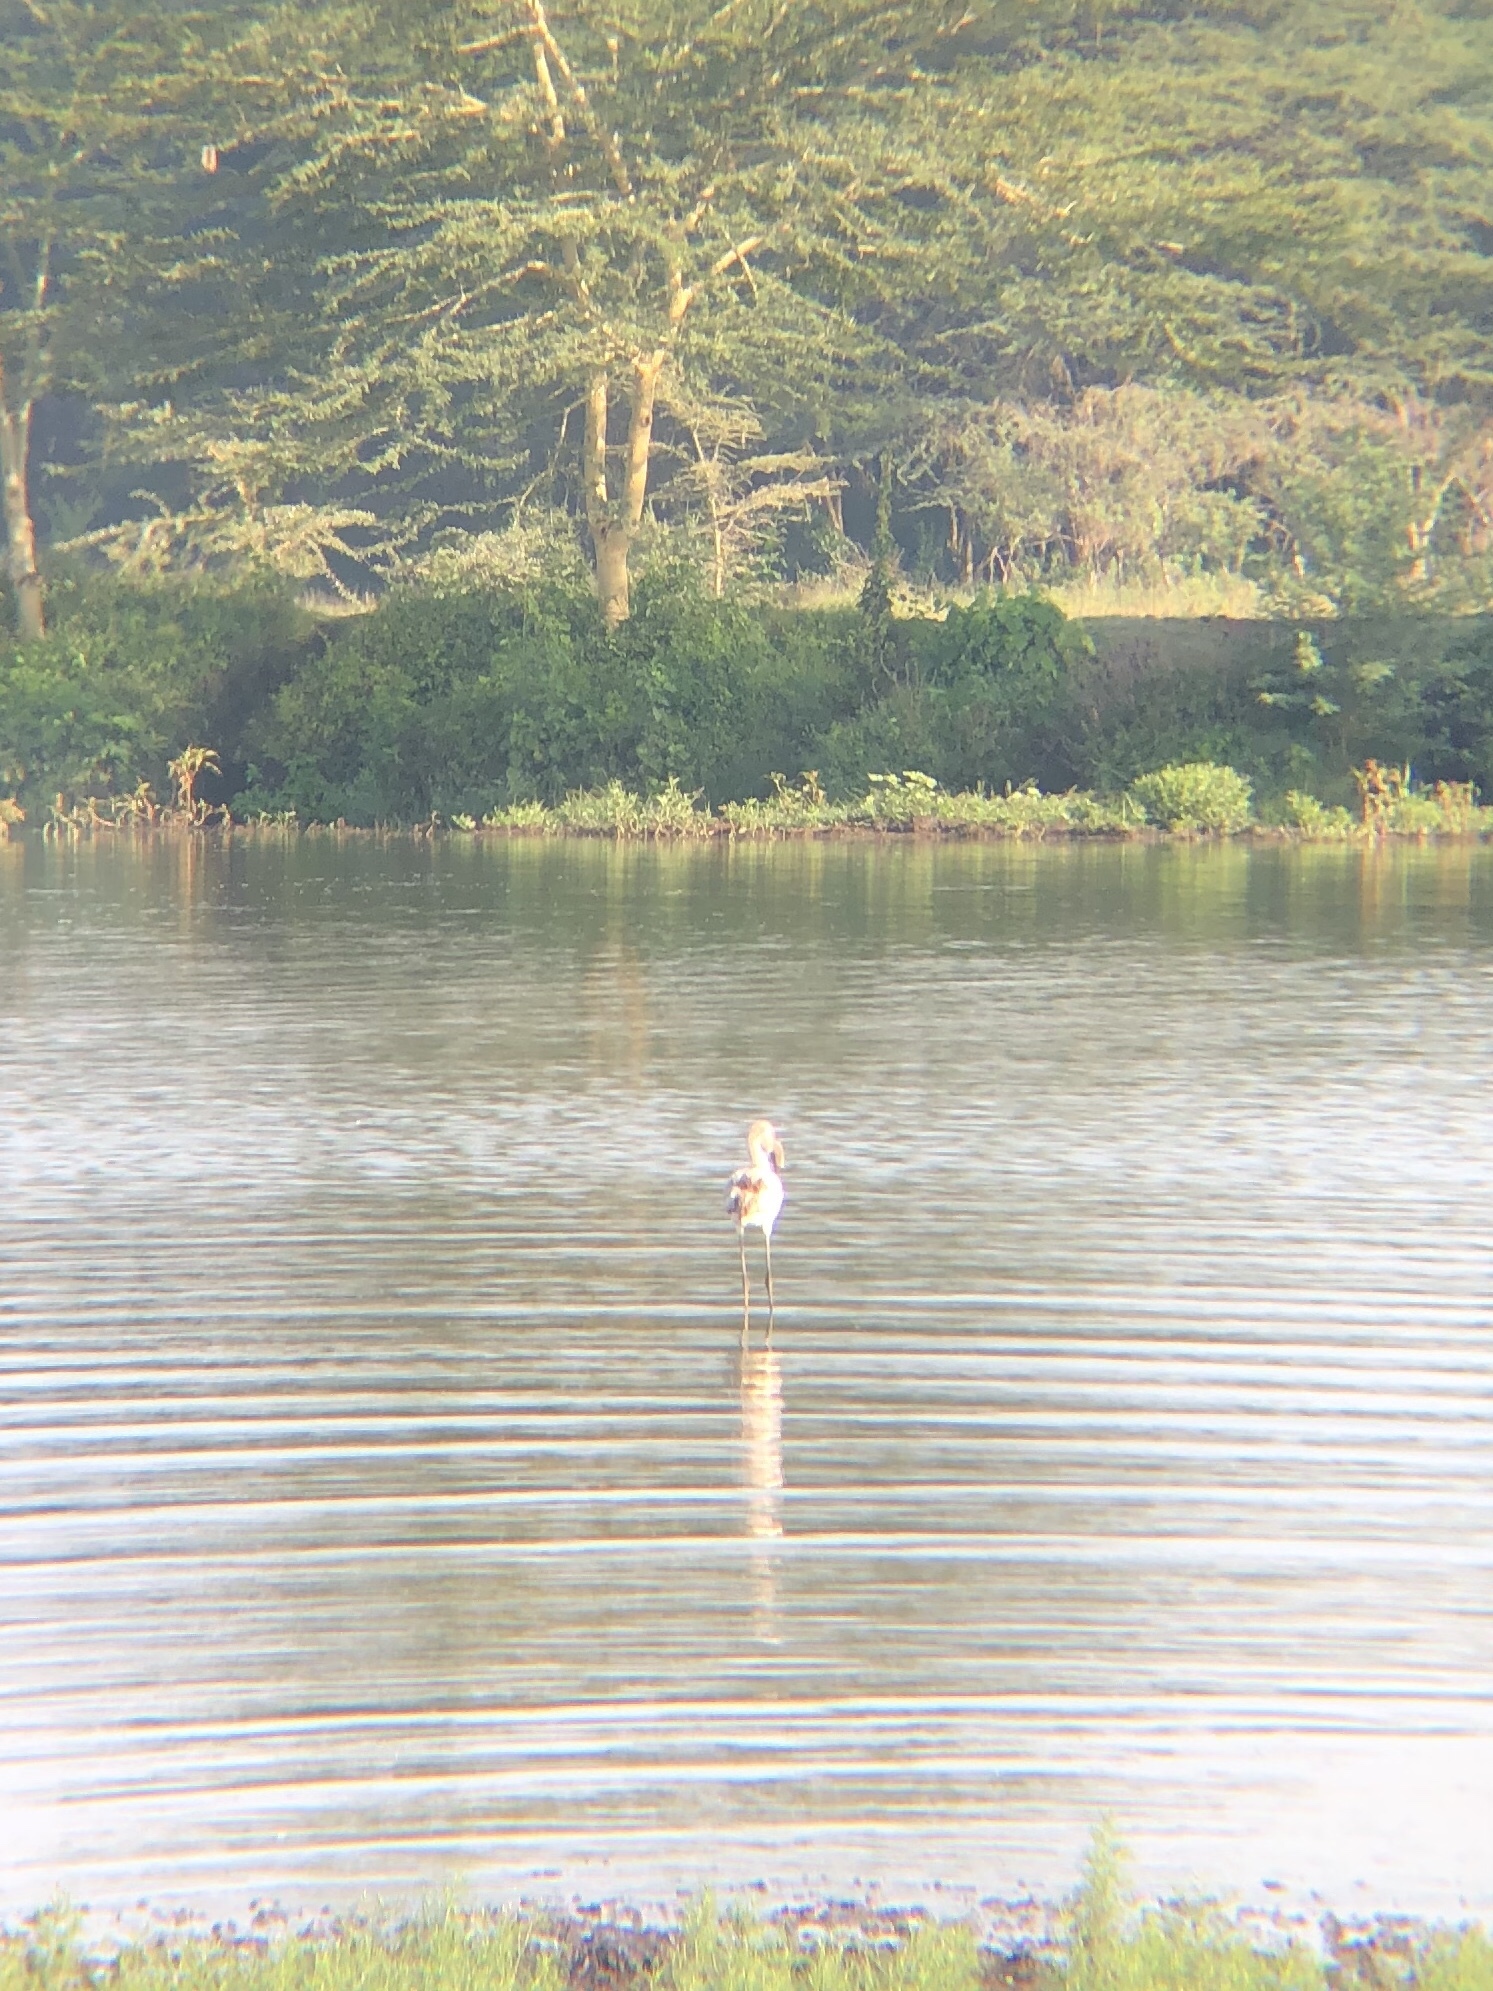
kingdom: Animalia
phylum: Chordata
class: Aves
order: Phoenicopteriformes
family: Phoenicopteridae
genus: Phoenicopterus
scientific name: Phoenicopterus roseus
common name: Greater flamingo
